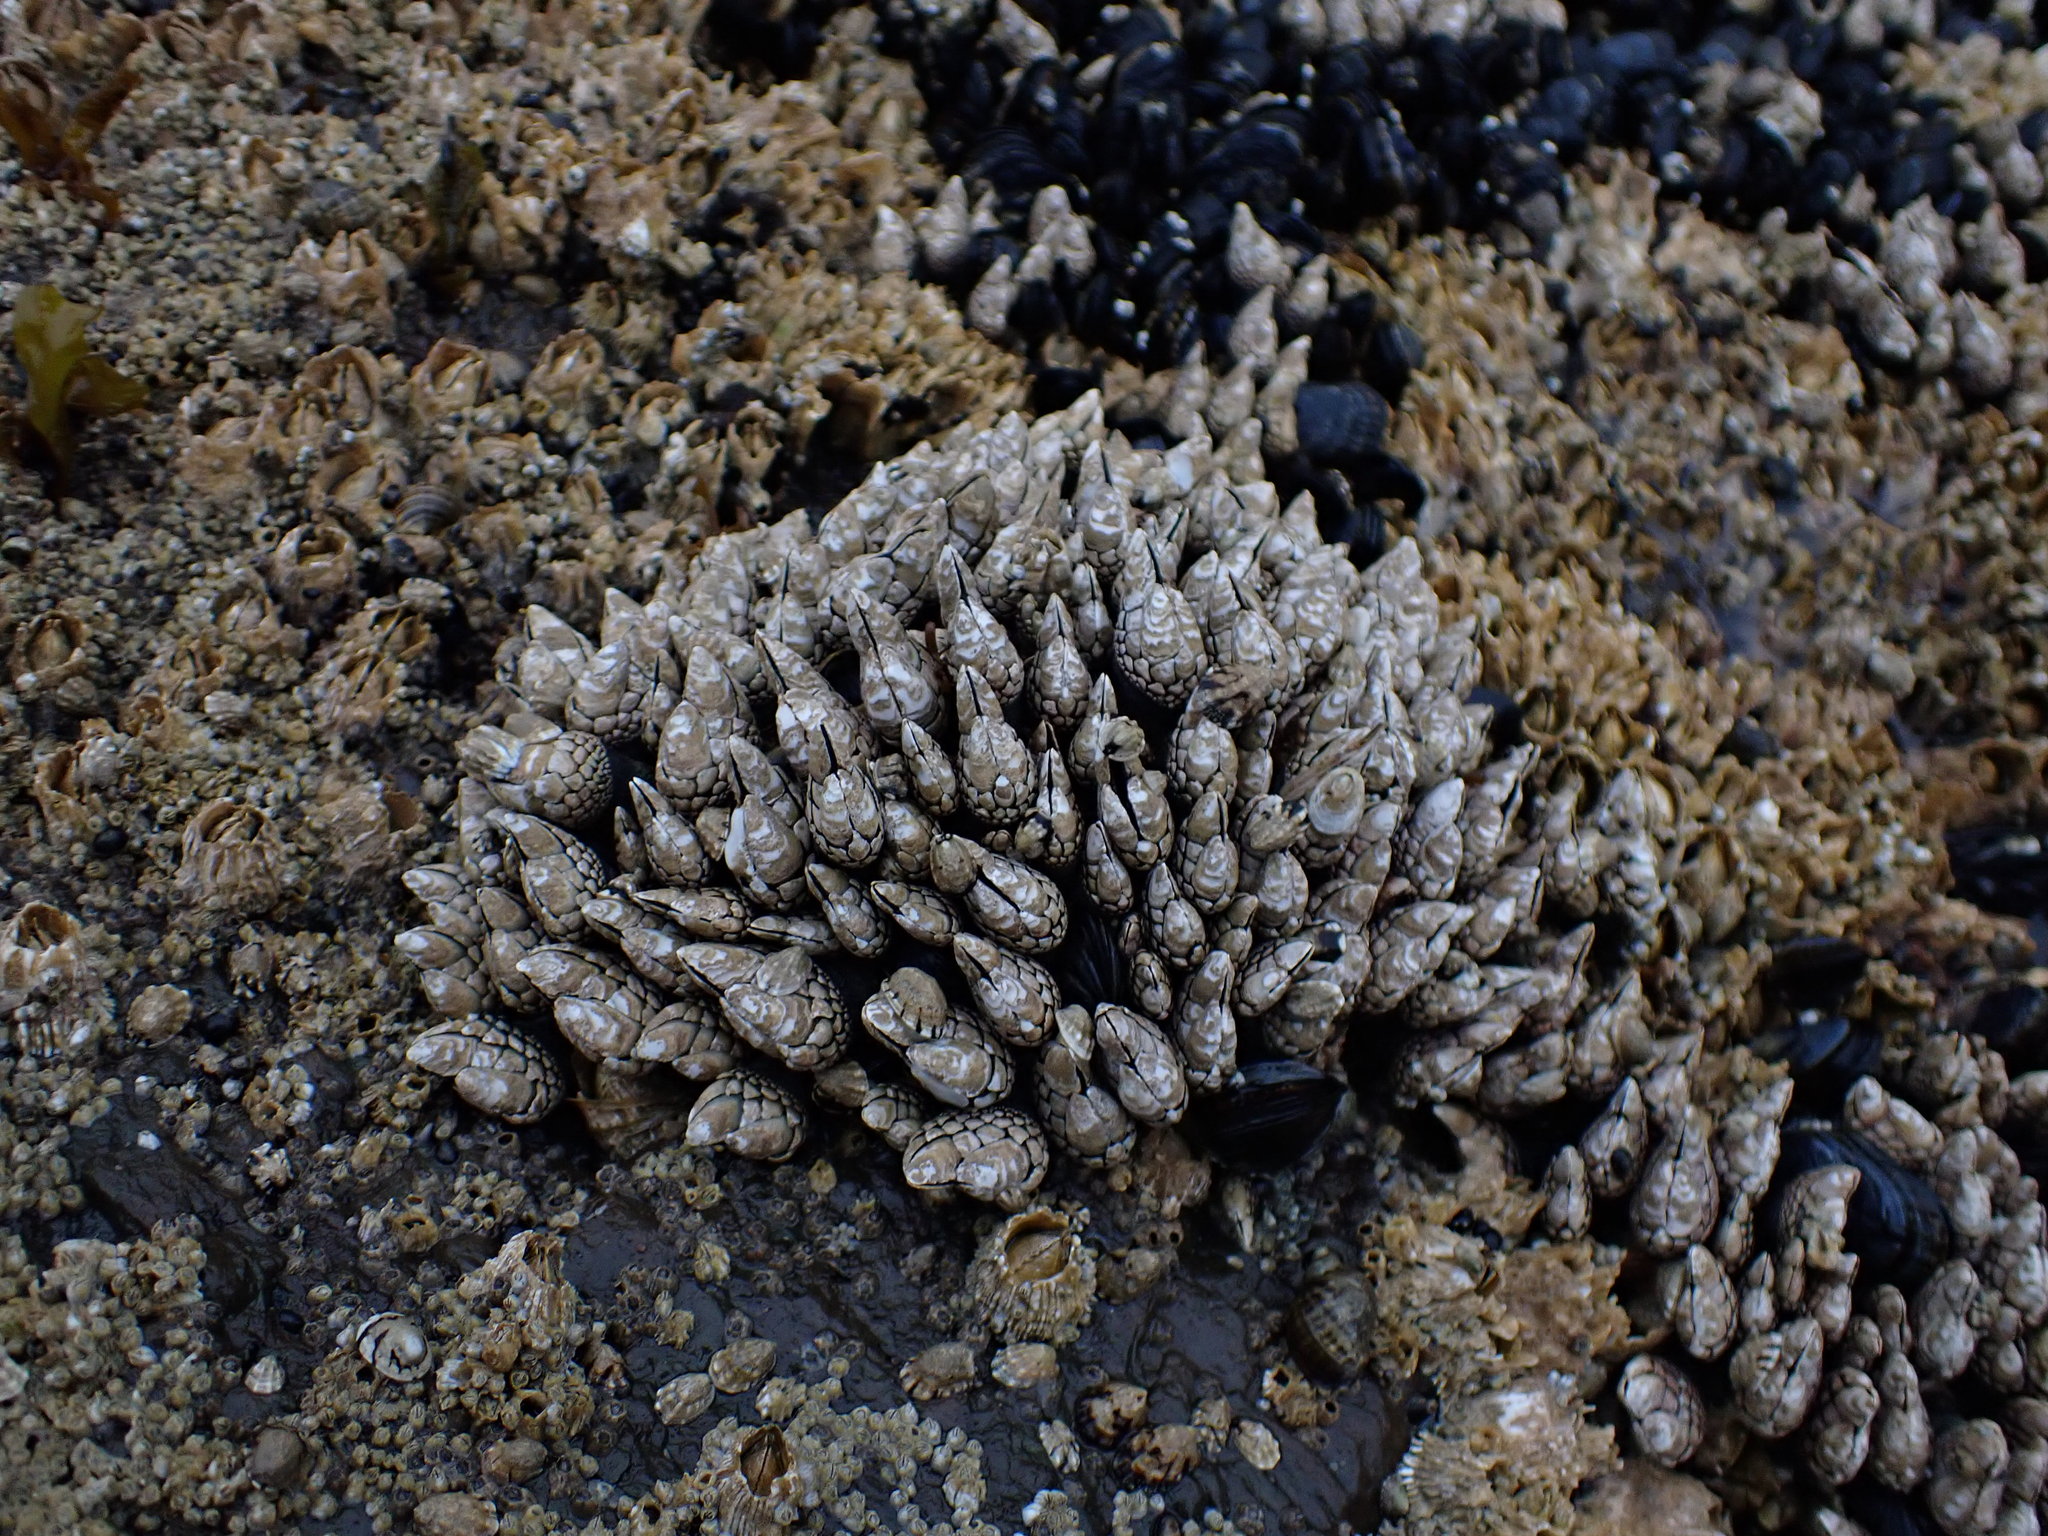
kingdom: Animalia
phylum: Arthropoda
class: Maxillopoda
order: Pedunculata
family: Pollicipedidae
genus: Pollicipes
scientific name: Pollicipes polymerus
